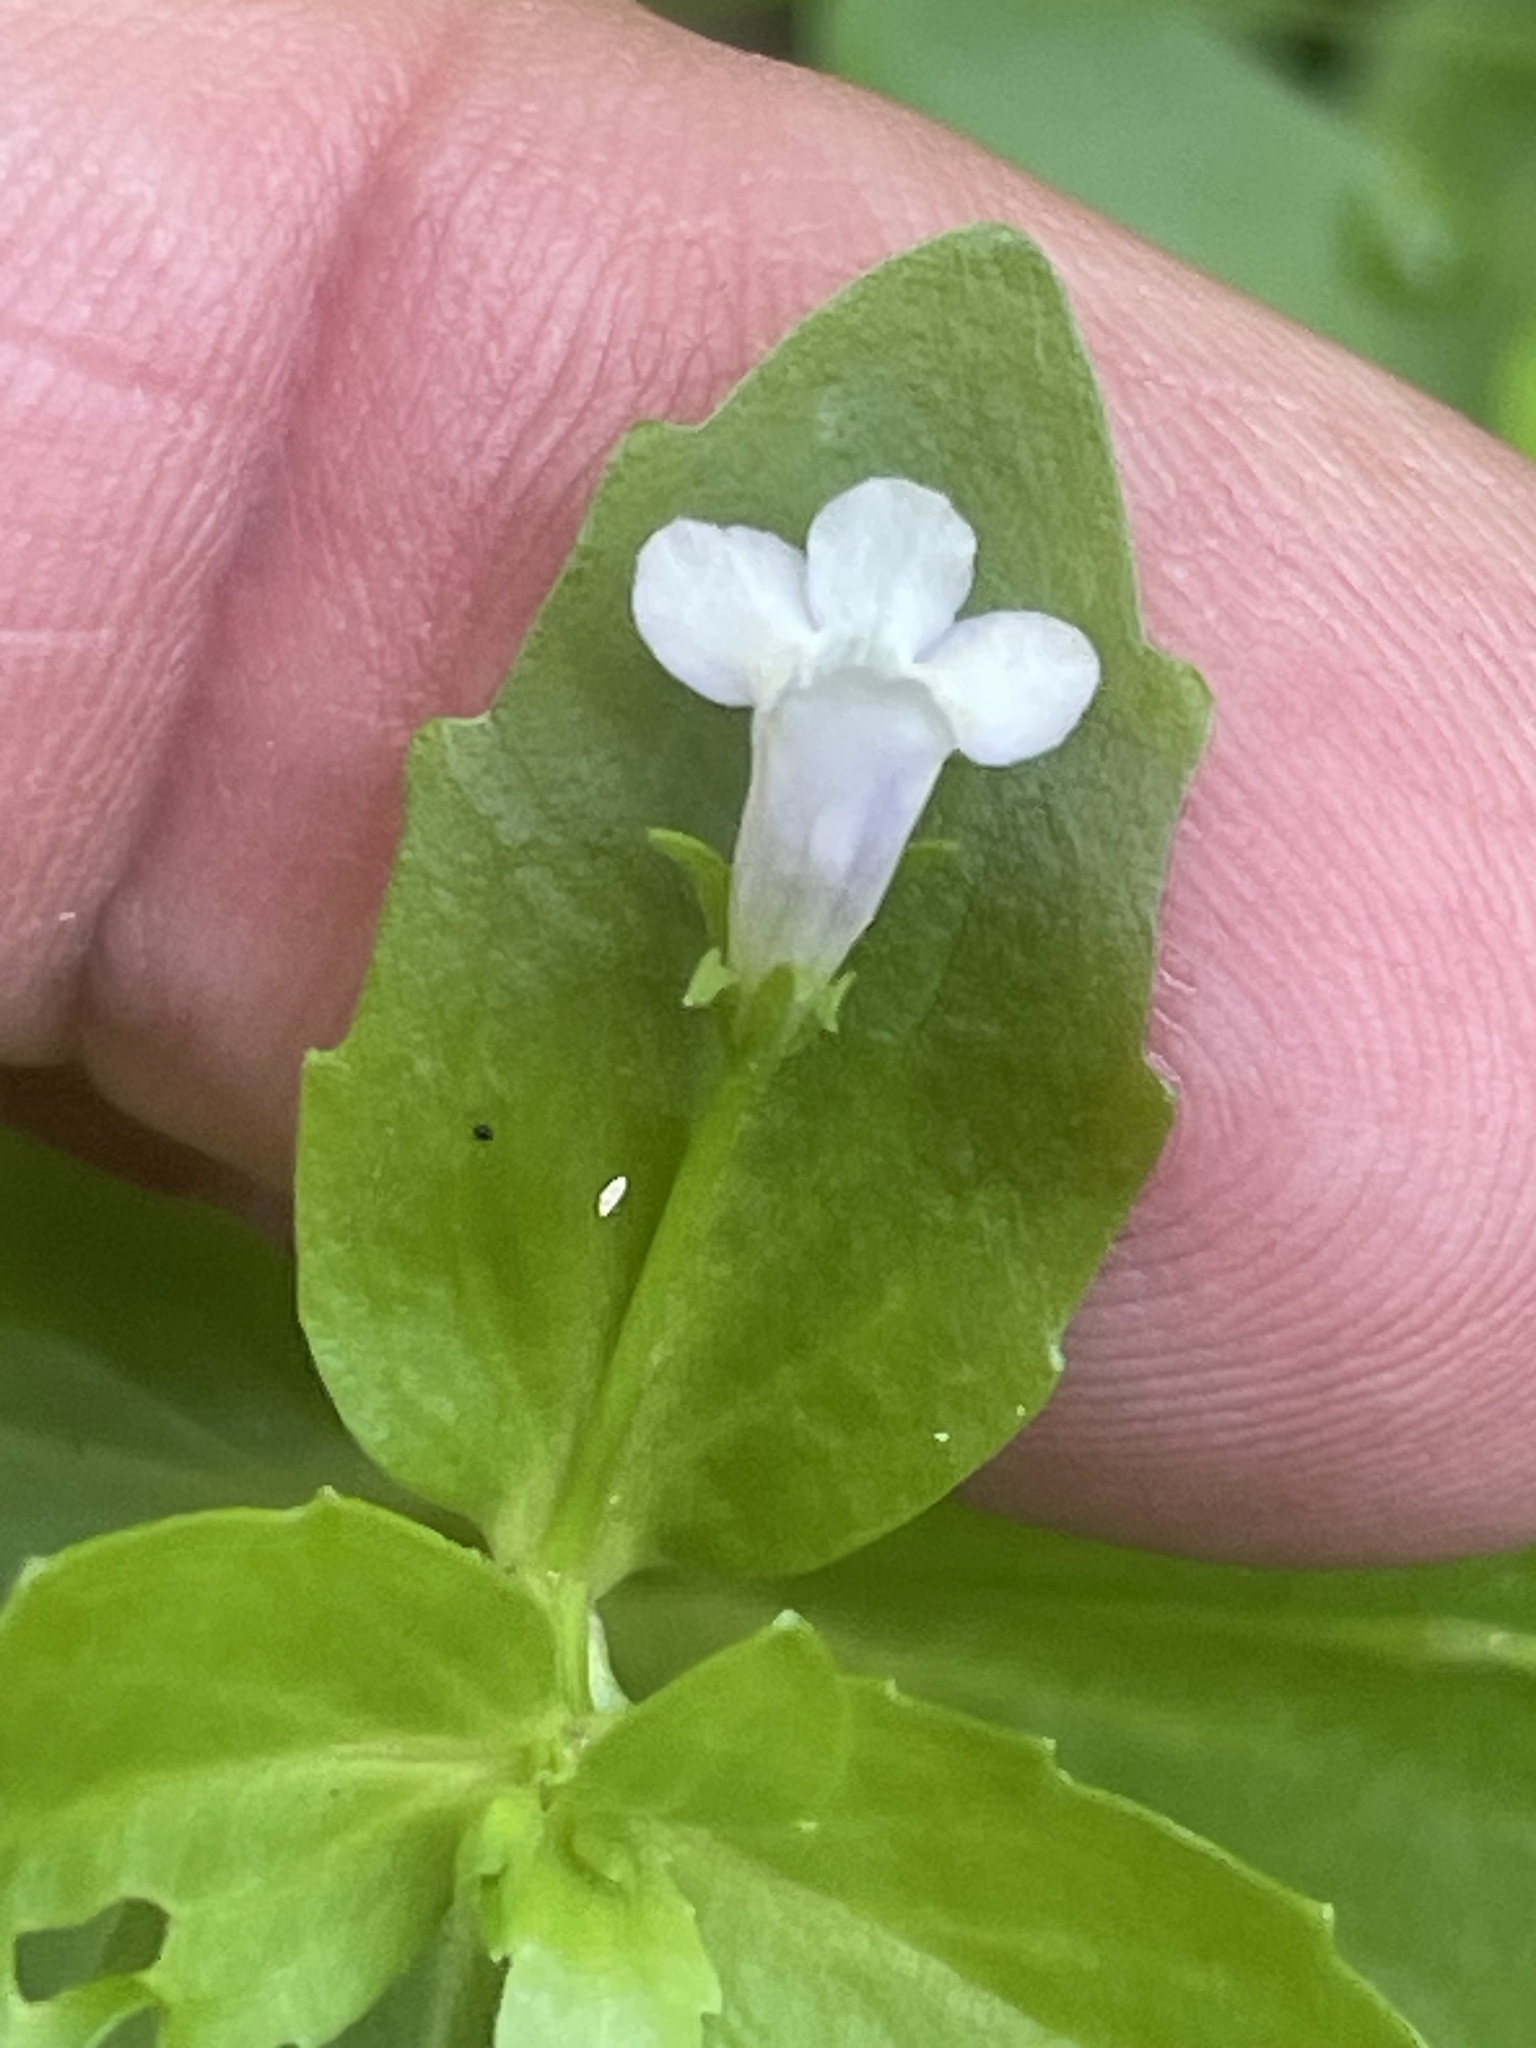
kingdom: Plantae
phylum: Tracheophyta
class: Magnoliopsida
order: Lamiales
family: Linderniaceae
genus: Lindernia
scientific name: Lindernia dubia
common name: Annual false pimpernel
